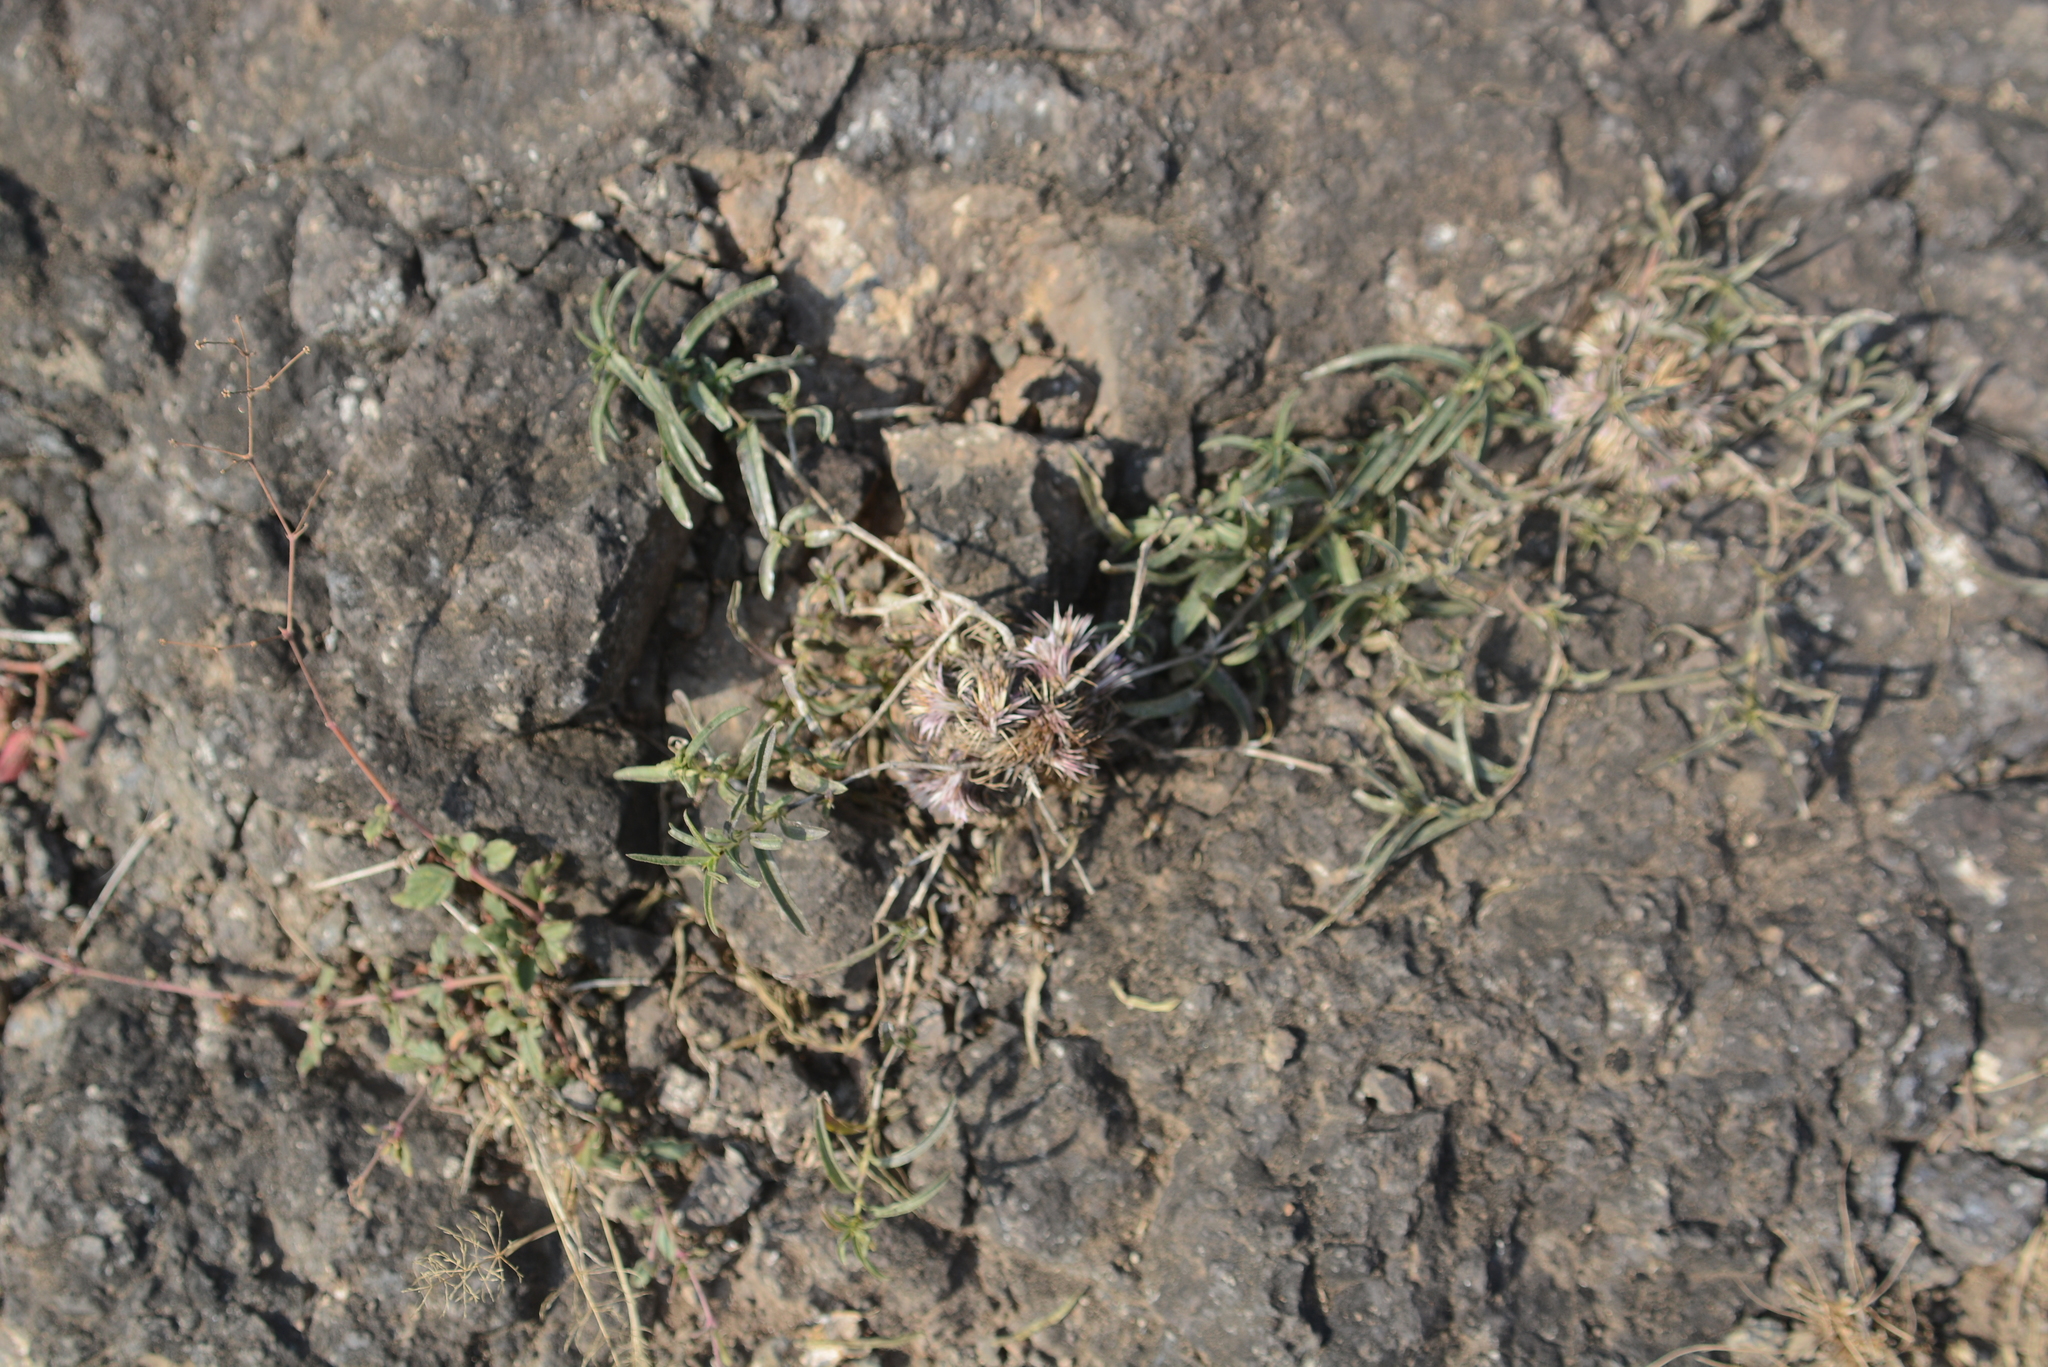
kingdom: Plantae
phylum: Tracheophyta
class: Magnoliopsida
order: Lamiales
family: Acanthaceae
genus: Lepidagathis
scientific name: Lepidagathis trinervis
